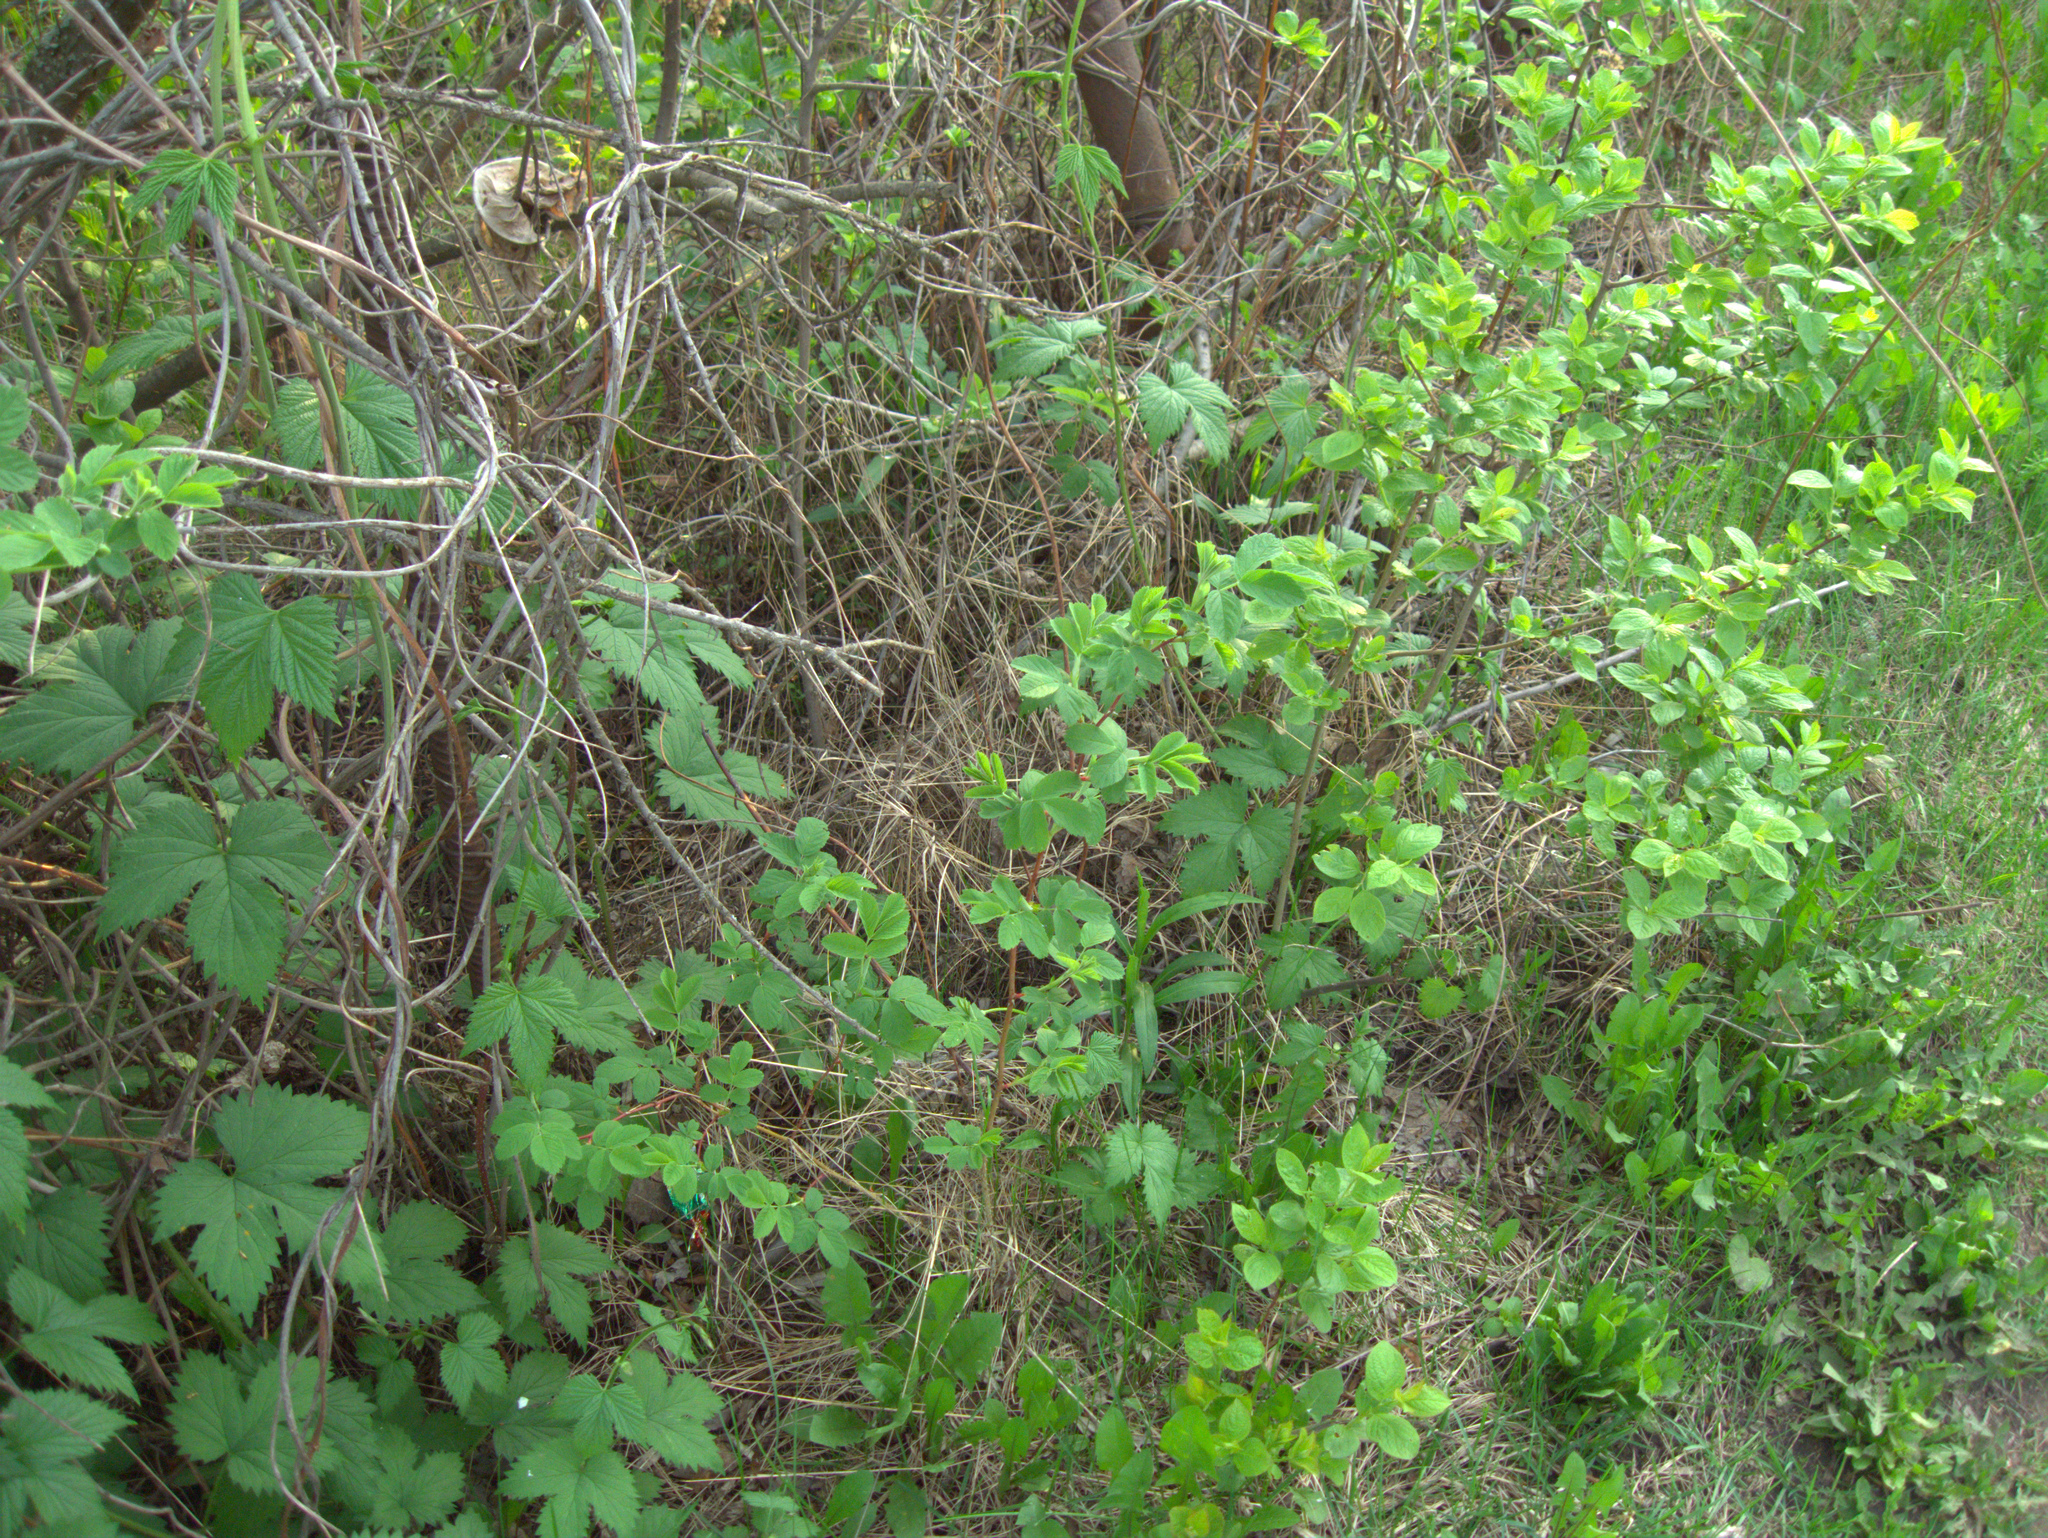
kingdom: Plantae
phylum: Tracheophyta
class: Magnoliopsida
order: Rosales
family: Cannabaceae
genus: Humulus
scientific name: Humulus lupulus
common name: Hop
